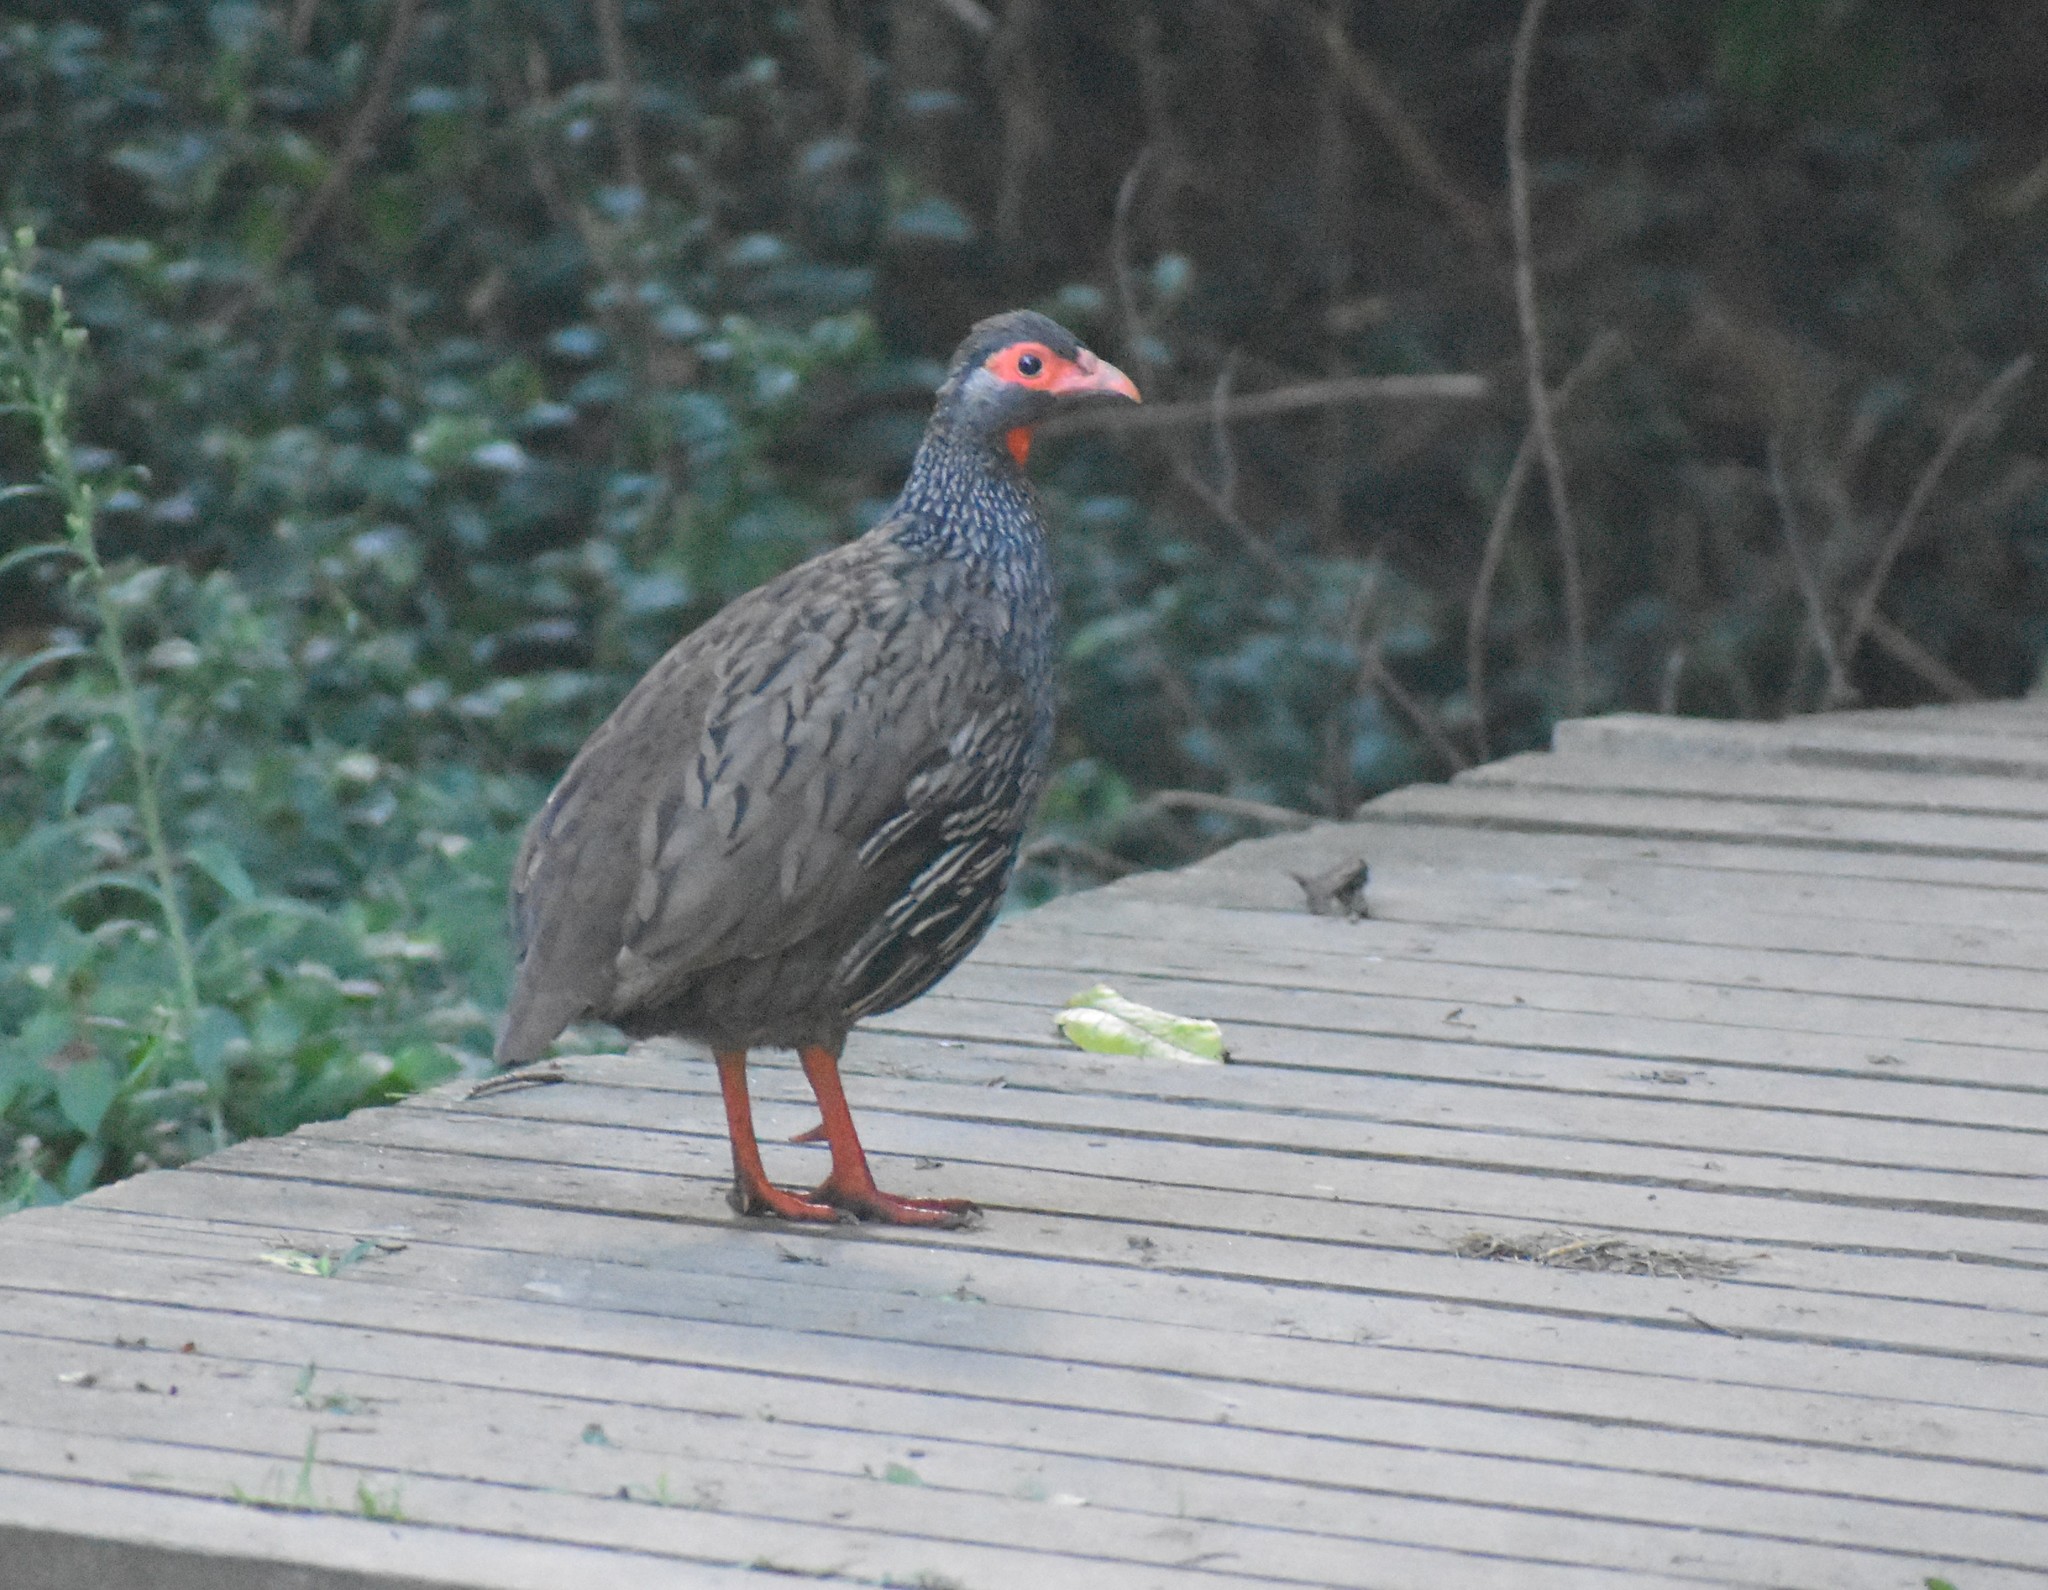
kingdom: Animalia
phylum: Chordata
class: Aves
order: Galliformes
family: Phasianidae
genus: Pternistis
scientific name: Pternistis afer
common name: Red-necked spurfowl
